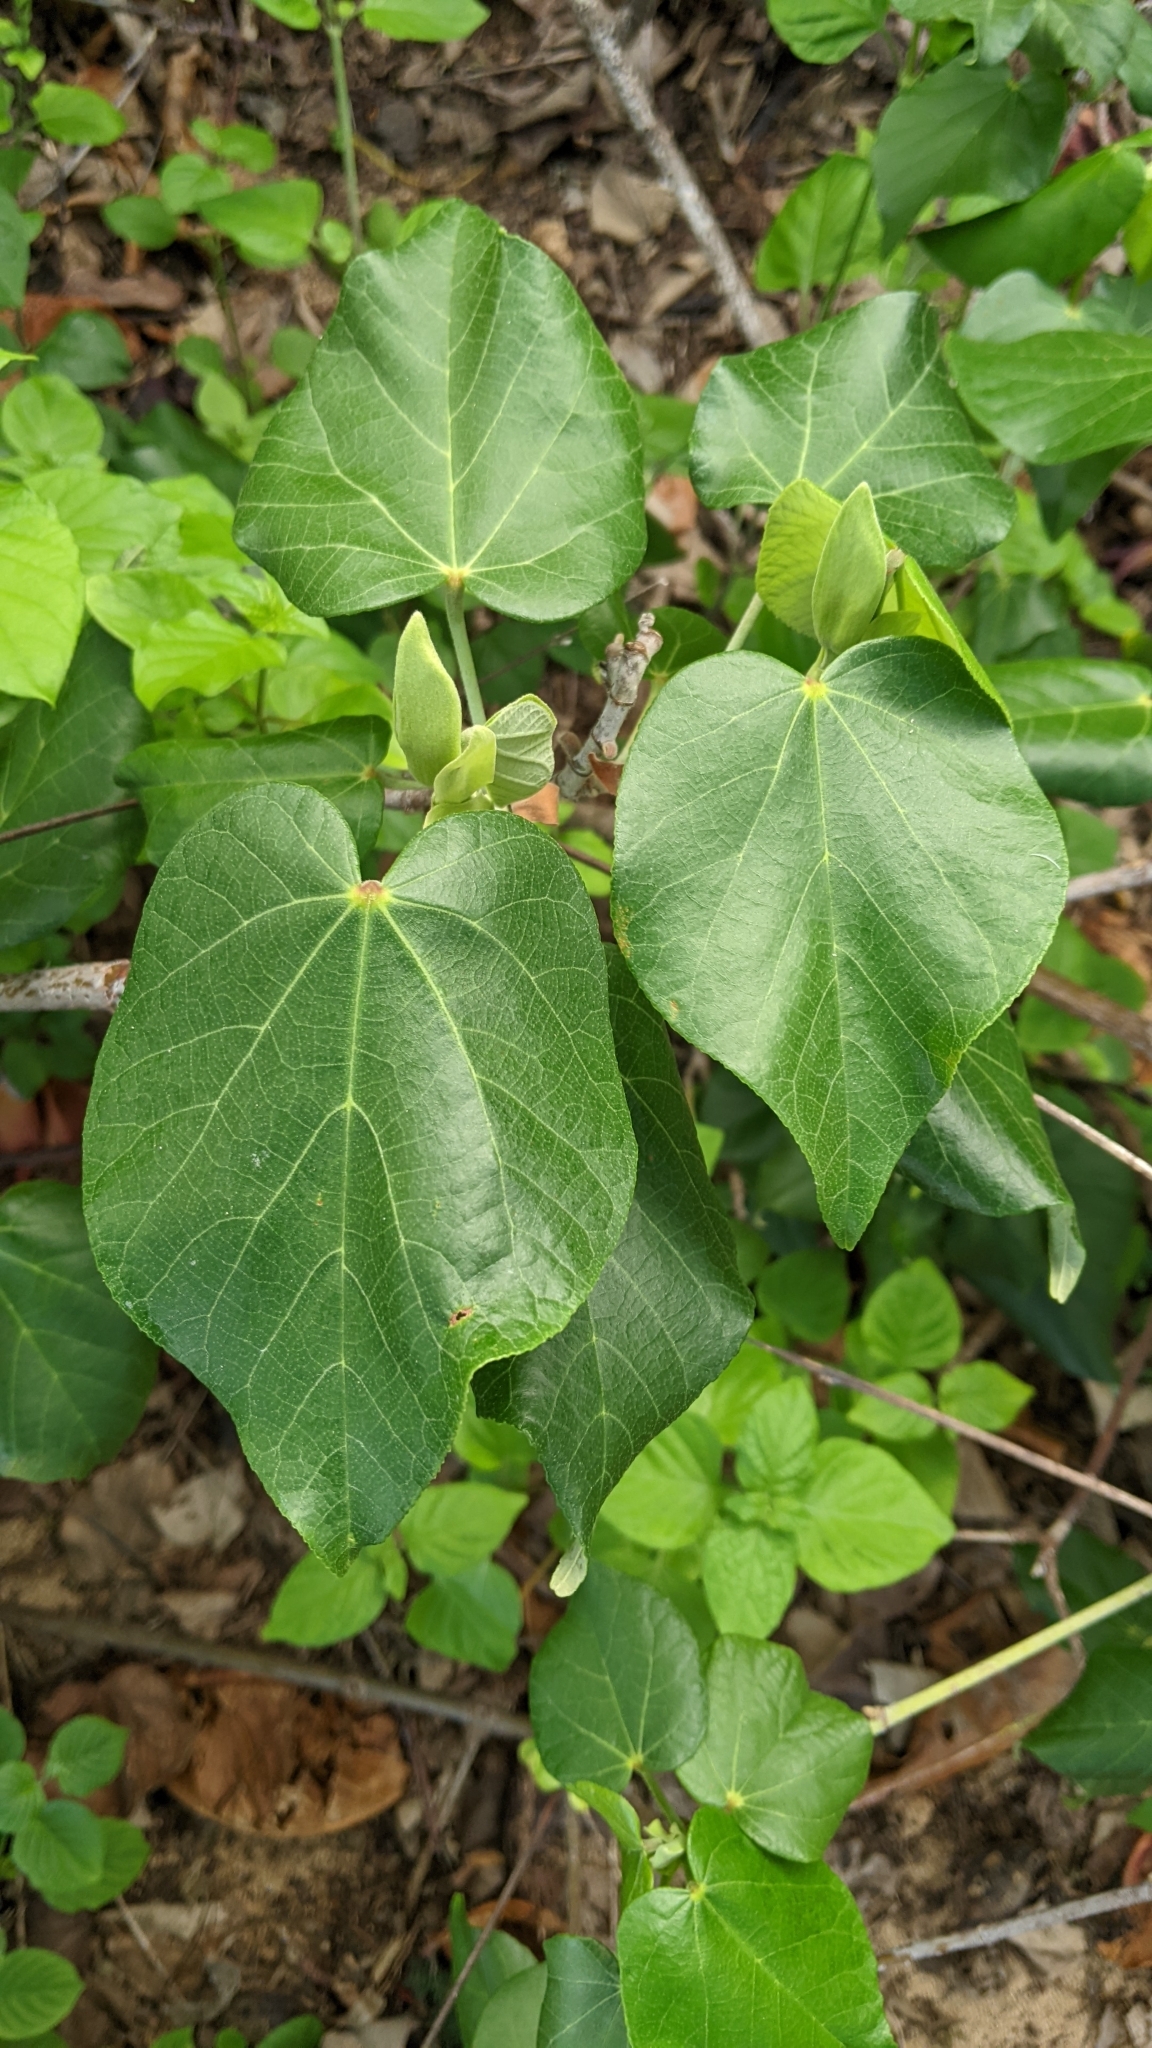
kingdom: Plantae
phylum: Tracheophyta
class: Magnoliopsida
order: Malvales
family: Malvaceae
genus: Talipariti
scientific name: Talipariti tiliaceum
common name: Sea hibiscus
